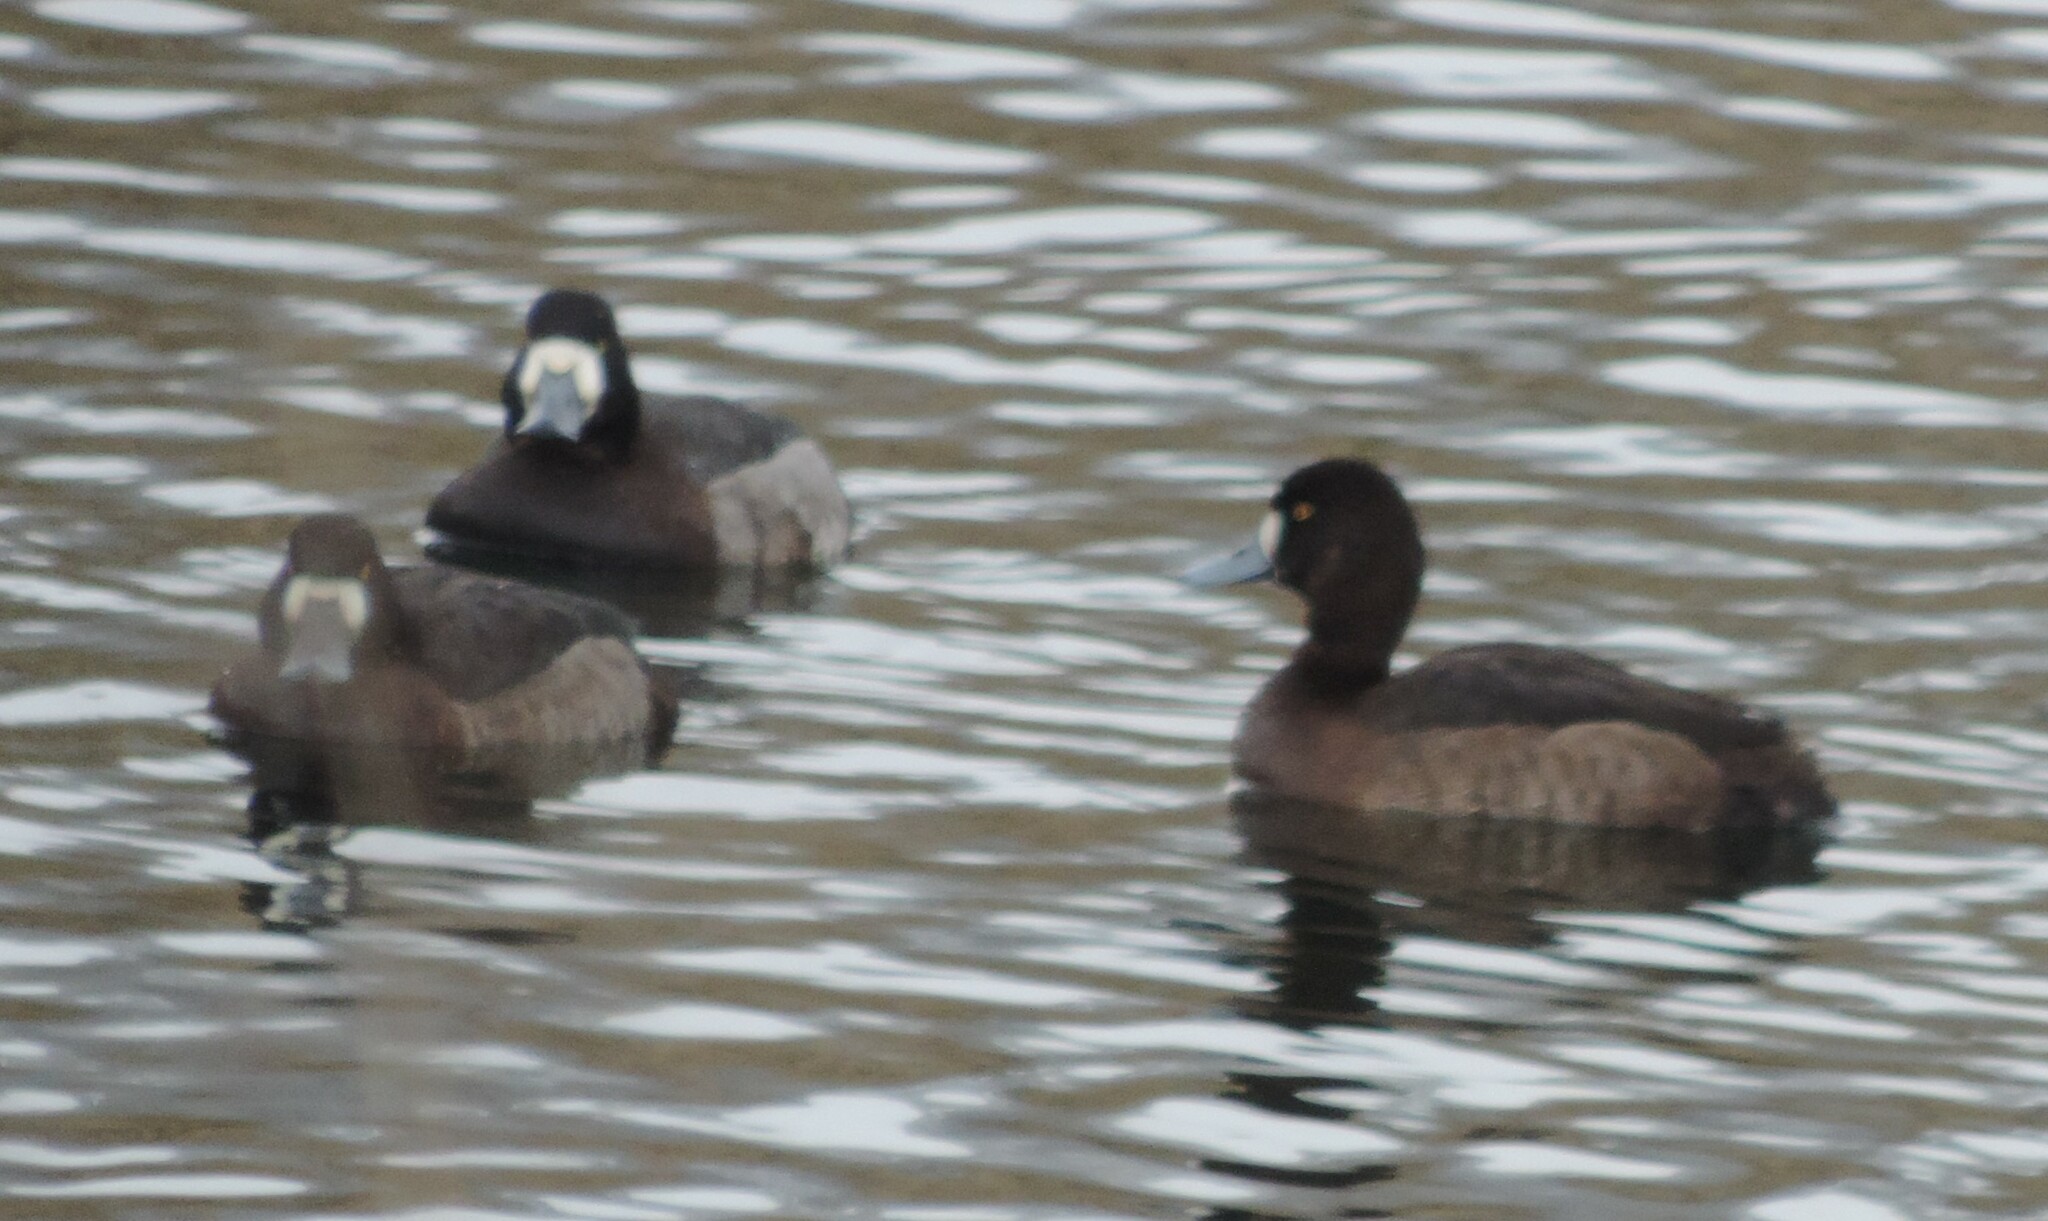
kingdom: Animalia
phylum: Chordata
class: Aves
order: Anseriformes
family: Anatidae
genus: Aythya
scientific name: Aythya marila
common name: Greater scaup
